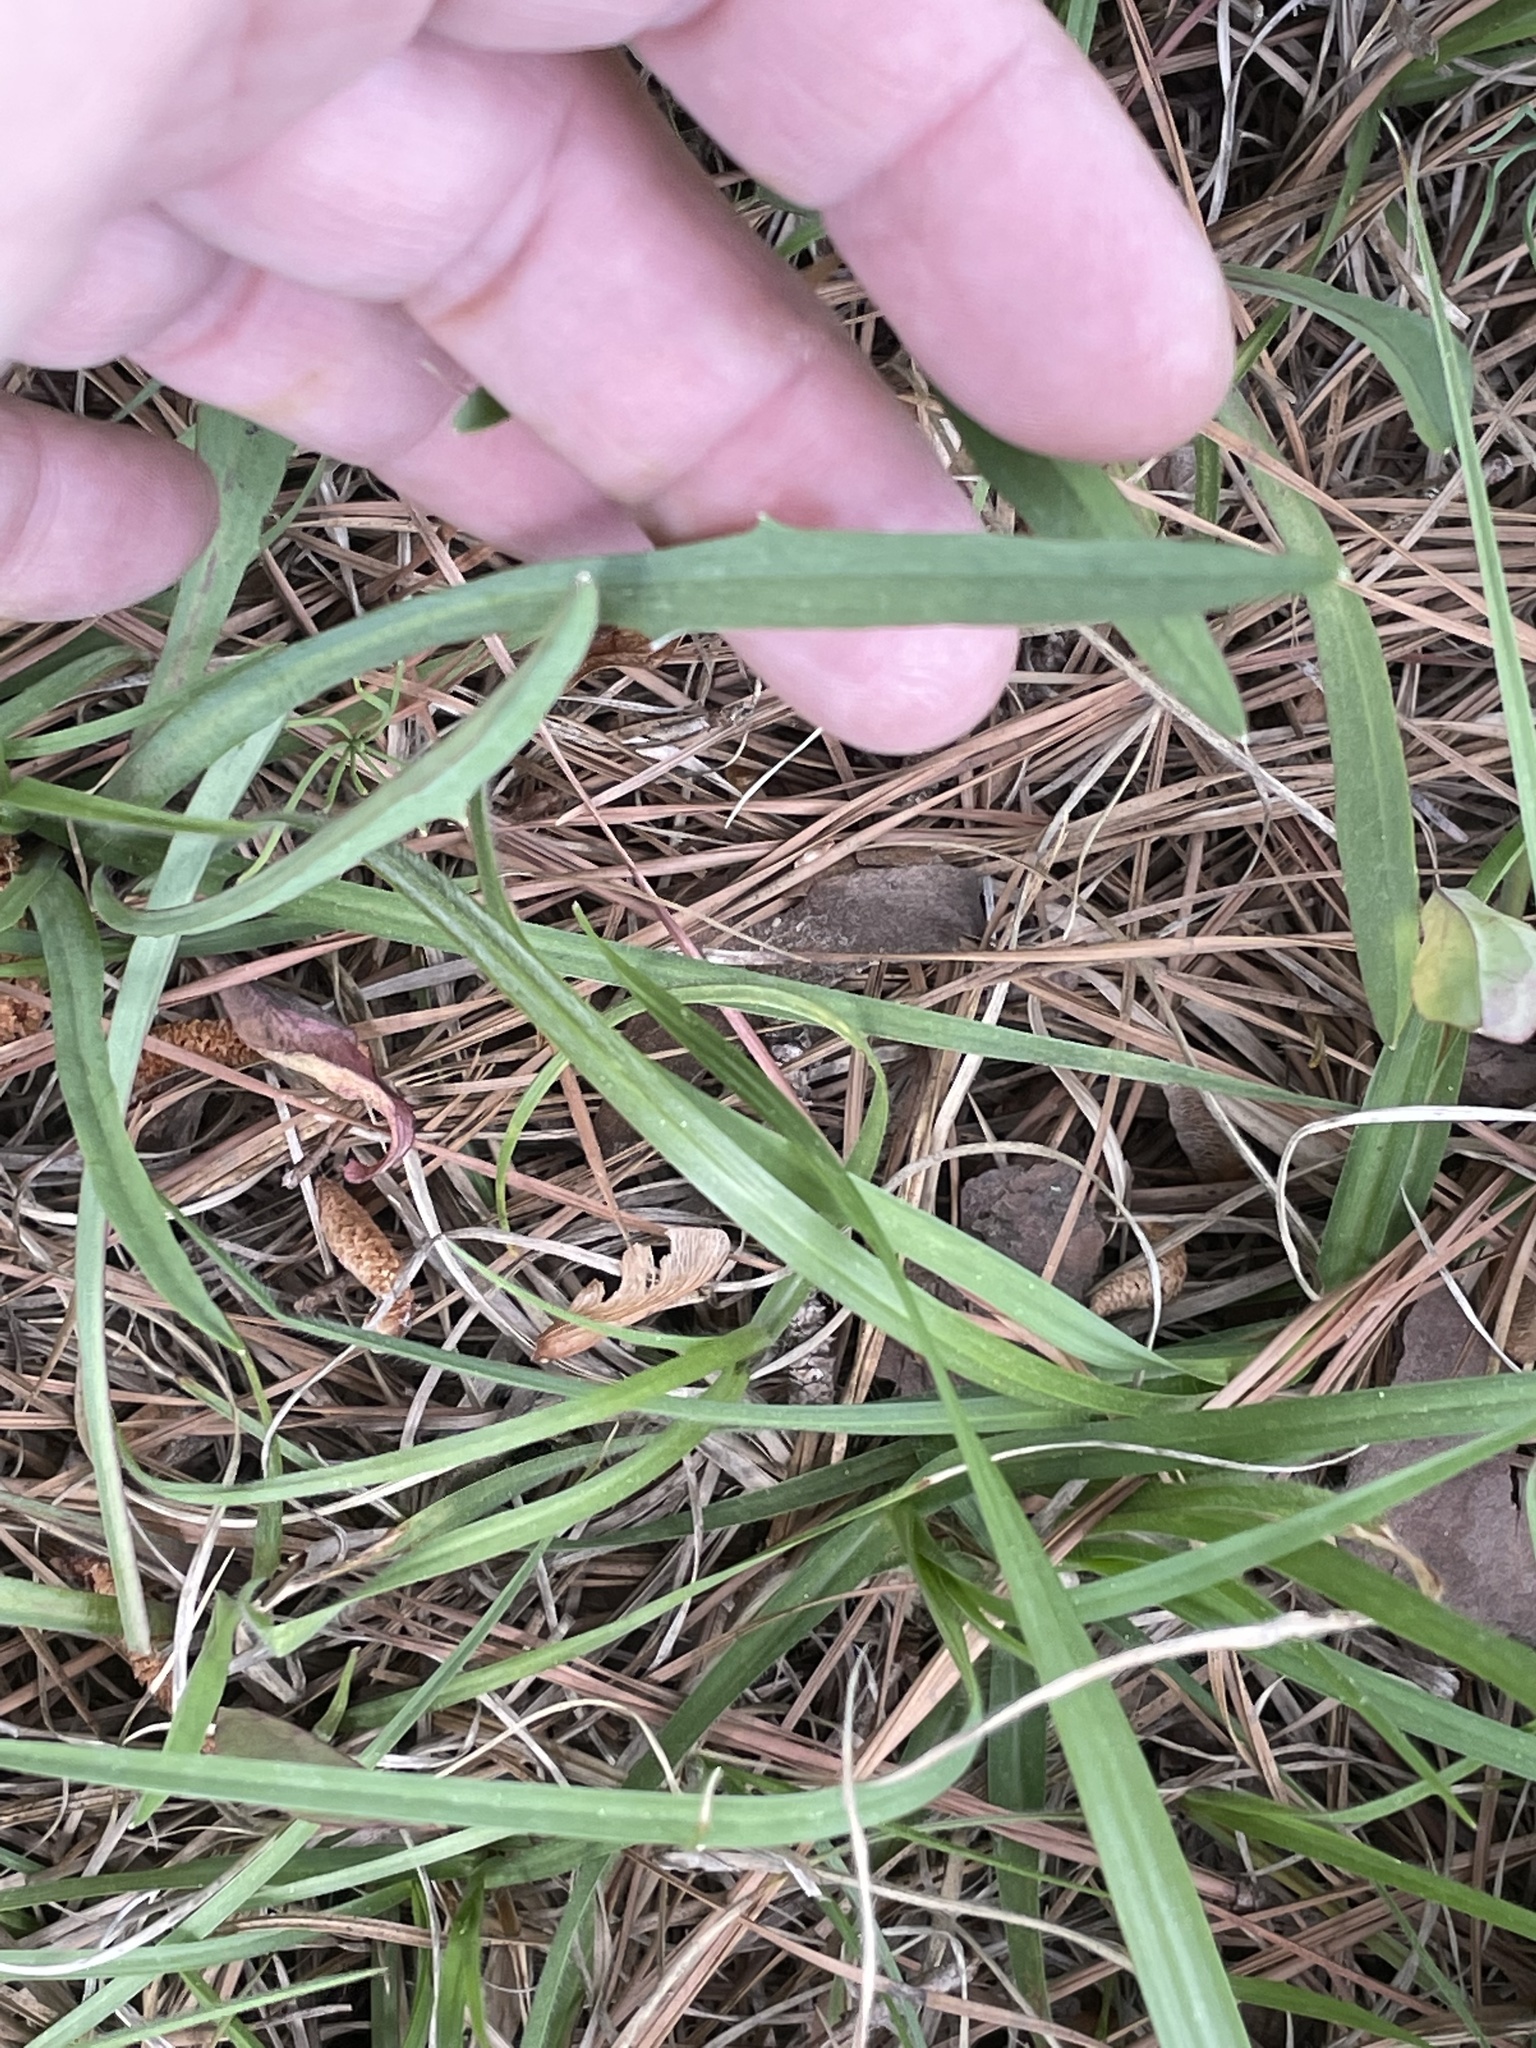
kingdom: Plantae
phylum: Tracheophyta
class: Magnoliopsida
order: Asterales
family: Asteraceae
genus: Krigia
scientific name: Krigia dandelion
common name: Colonial dwarf-dandelion
